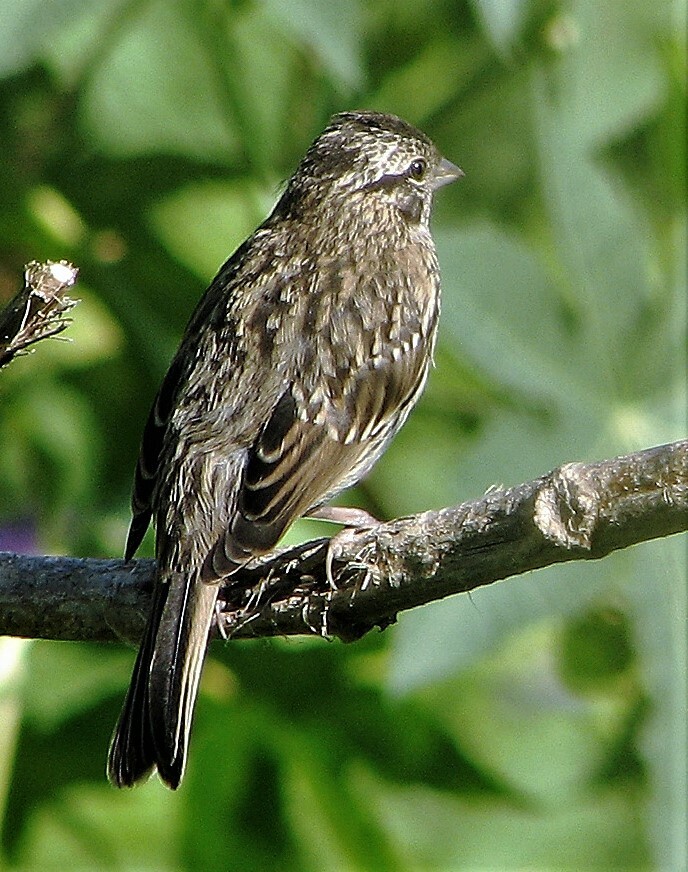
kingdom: Animalia
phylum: Chordata
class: Aves
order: Passeriformes
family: Passerellidae
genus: Zonotrichia
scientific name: Zonotrichia capensis
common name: Rufous-collared sparrow
